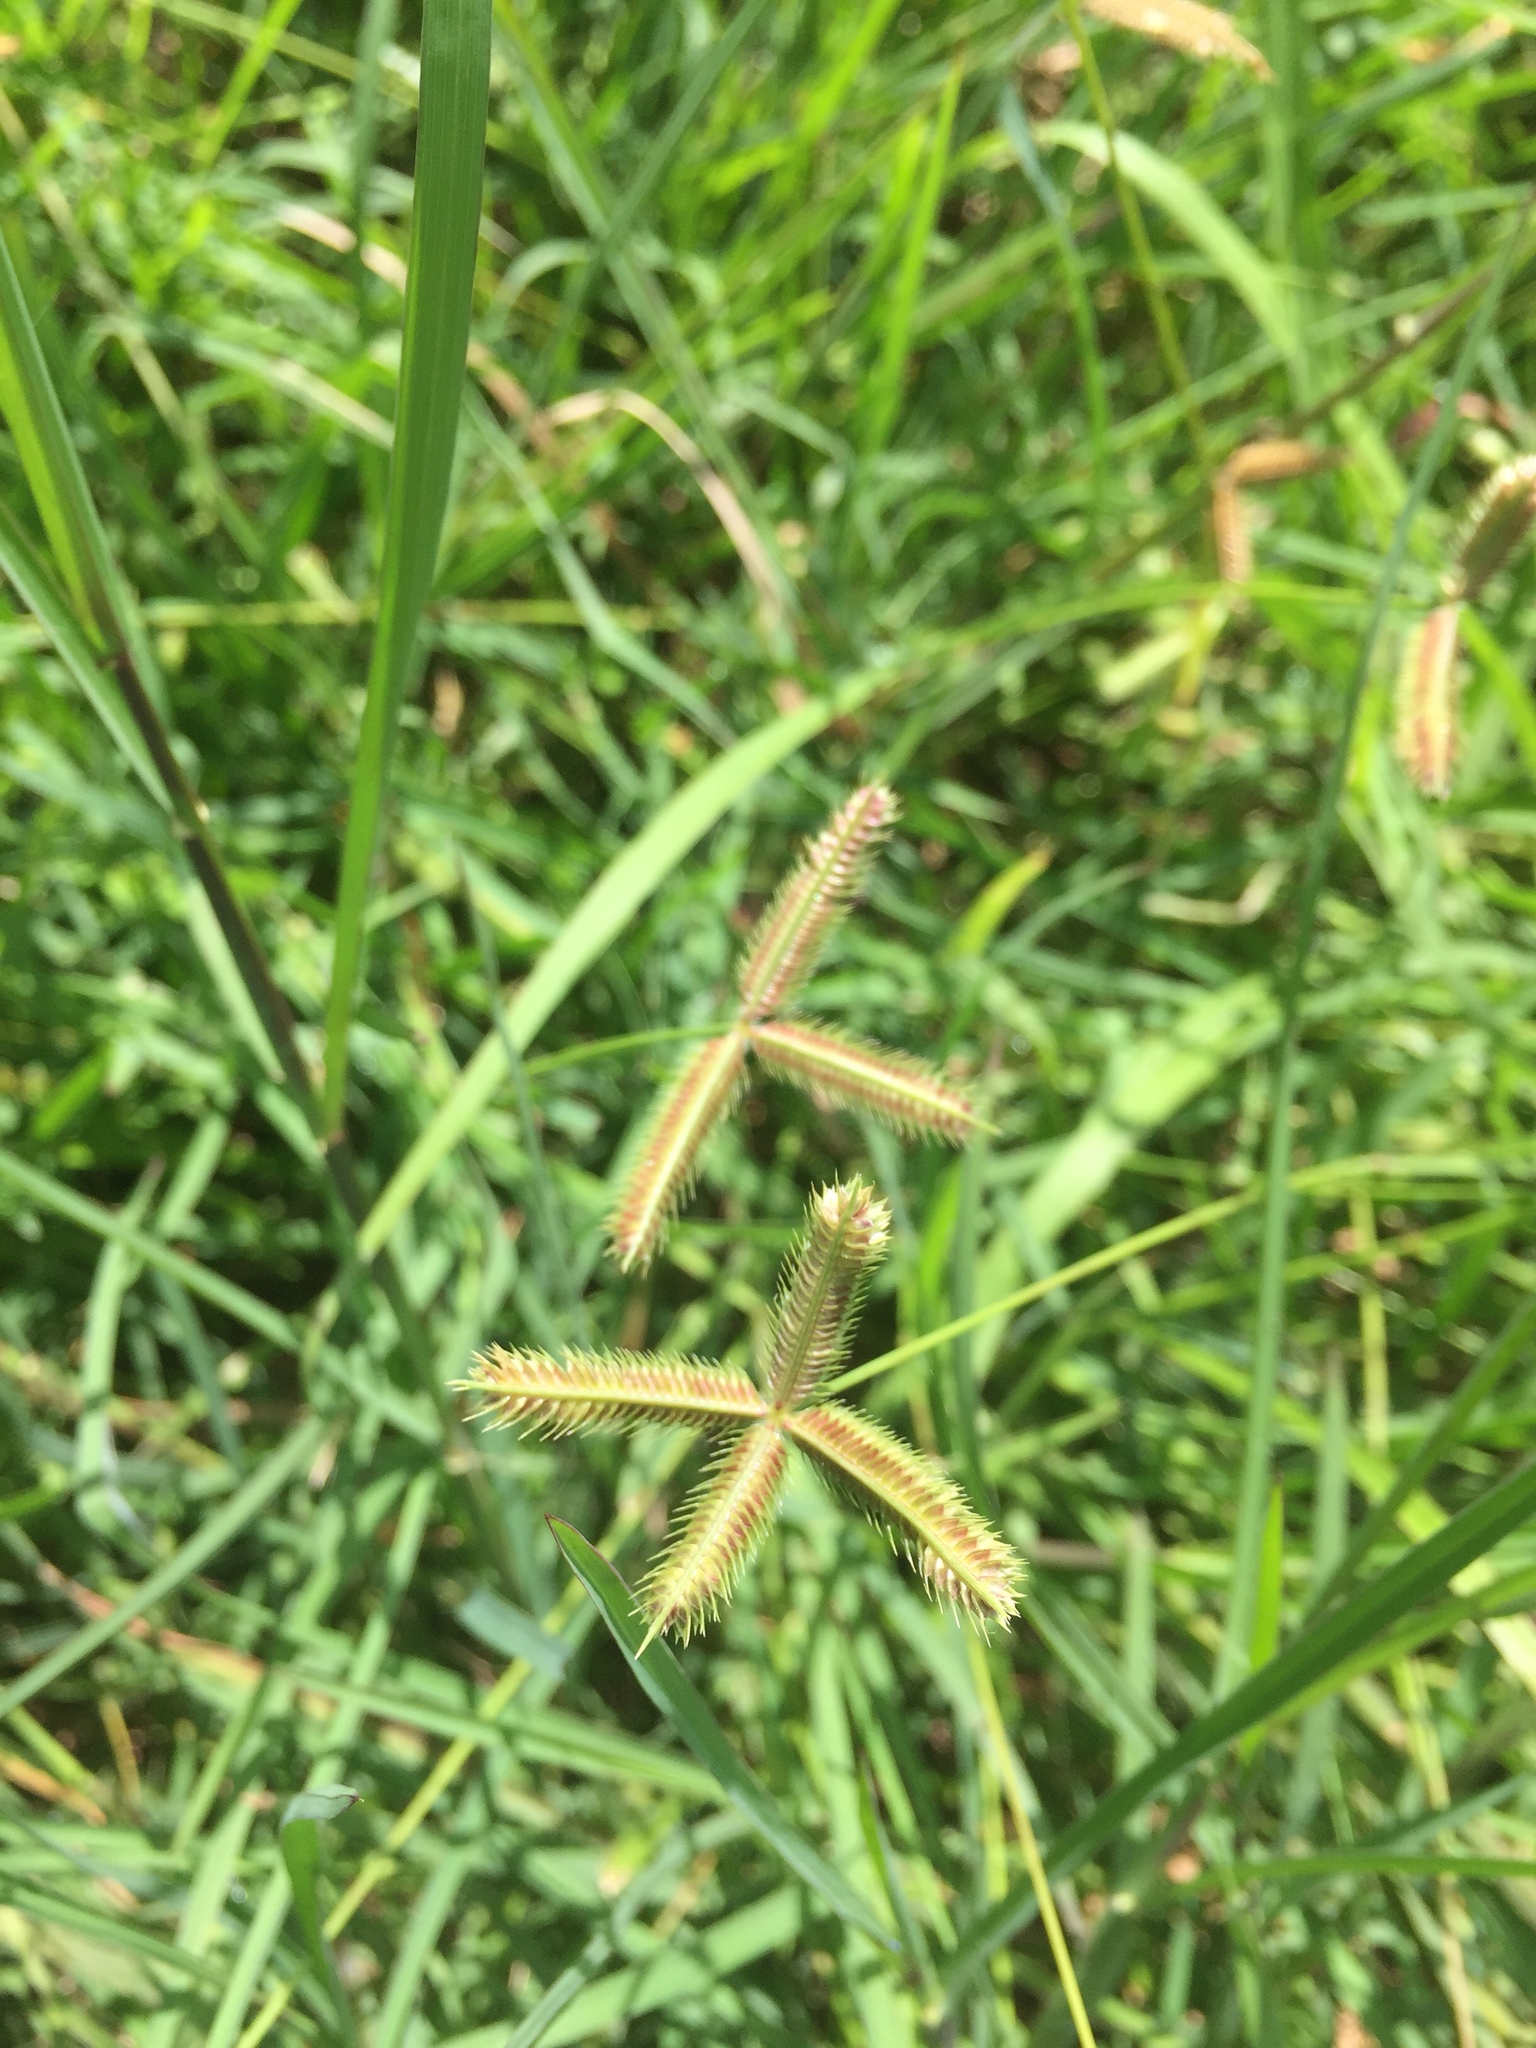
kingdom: Plantae
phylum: Tracheophyta
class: Liliopsida
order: Poales
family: Poaceae
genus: Dactyloctenium
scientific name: Dactyloctenium aegyptium
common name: Egyptian grass
